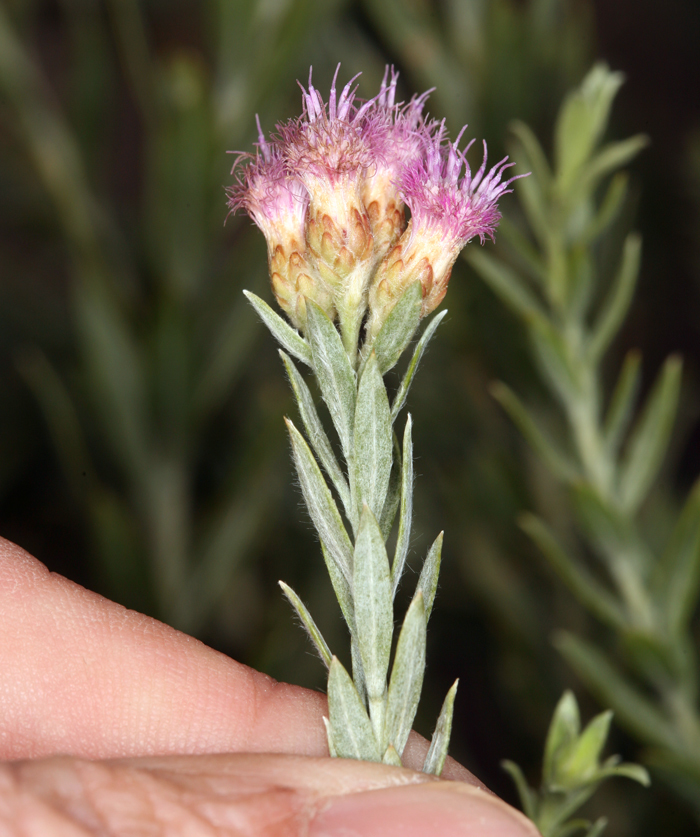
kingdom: Plantae
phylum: Tracheophyta
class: Magnoliopsida
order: Asterales
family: Asteraceae
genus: Pluchea
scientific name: Pluchea sericea
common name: Arrow-weed
